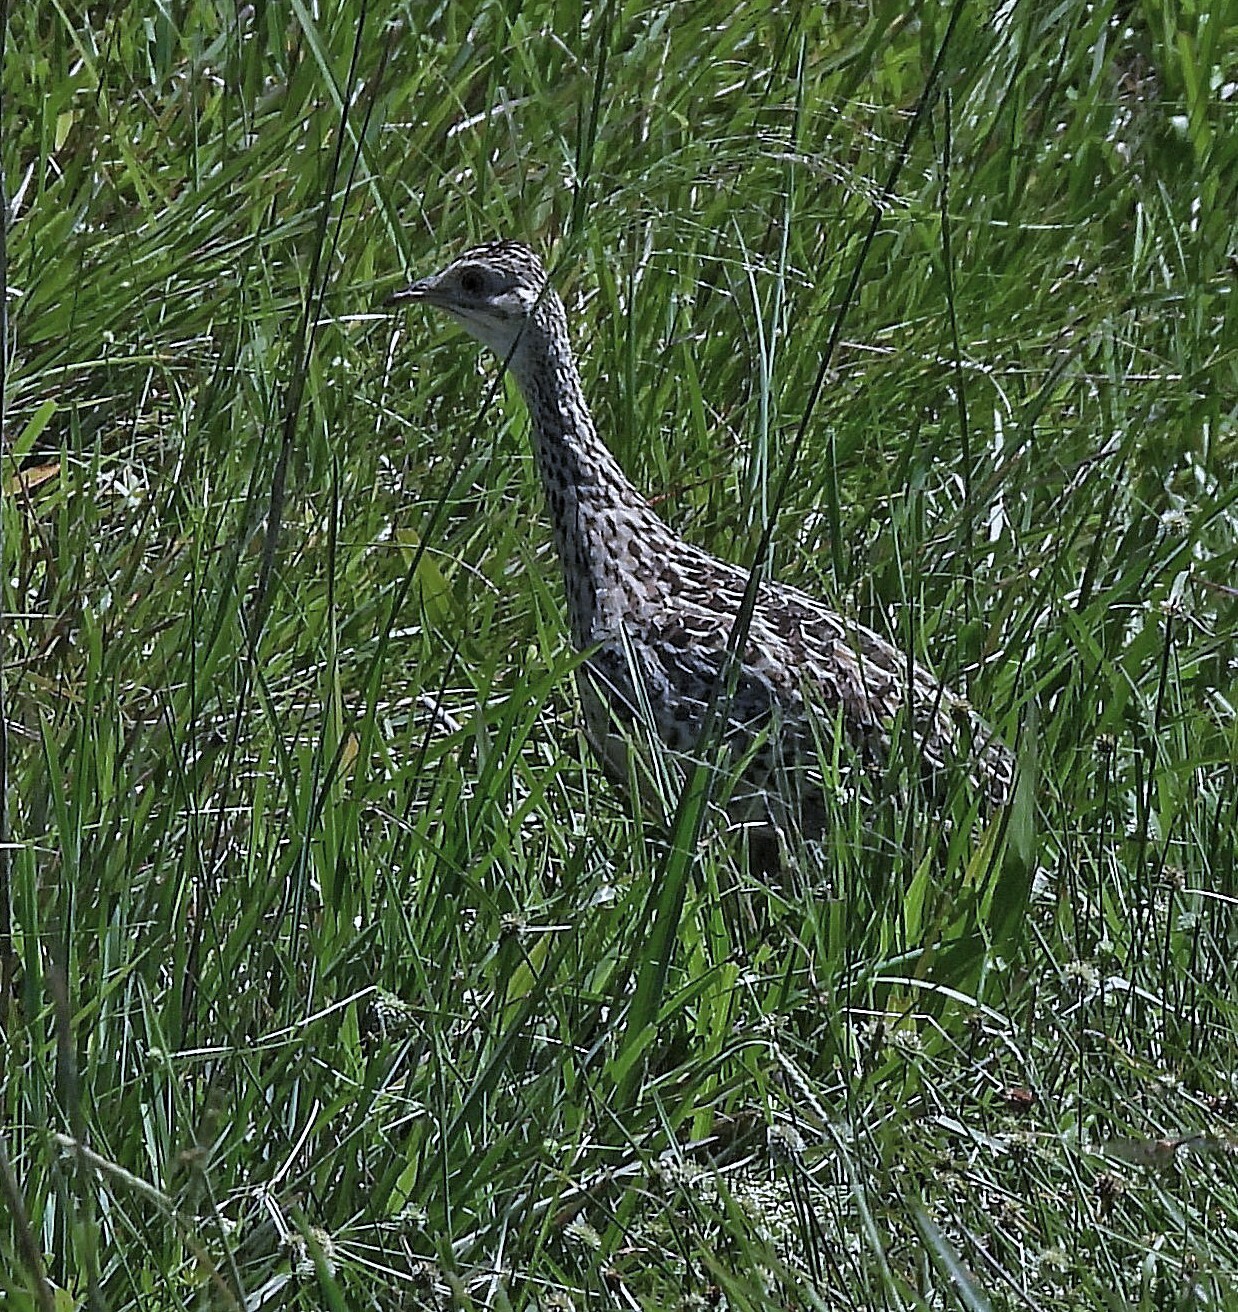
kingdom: Animalia
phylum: Chordata
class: Aves
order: Tinamiformes
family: Tinamidae
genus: Nothura
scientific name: Nothura maculosa
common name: Spotted nothura
